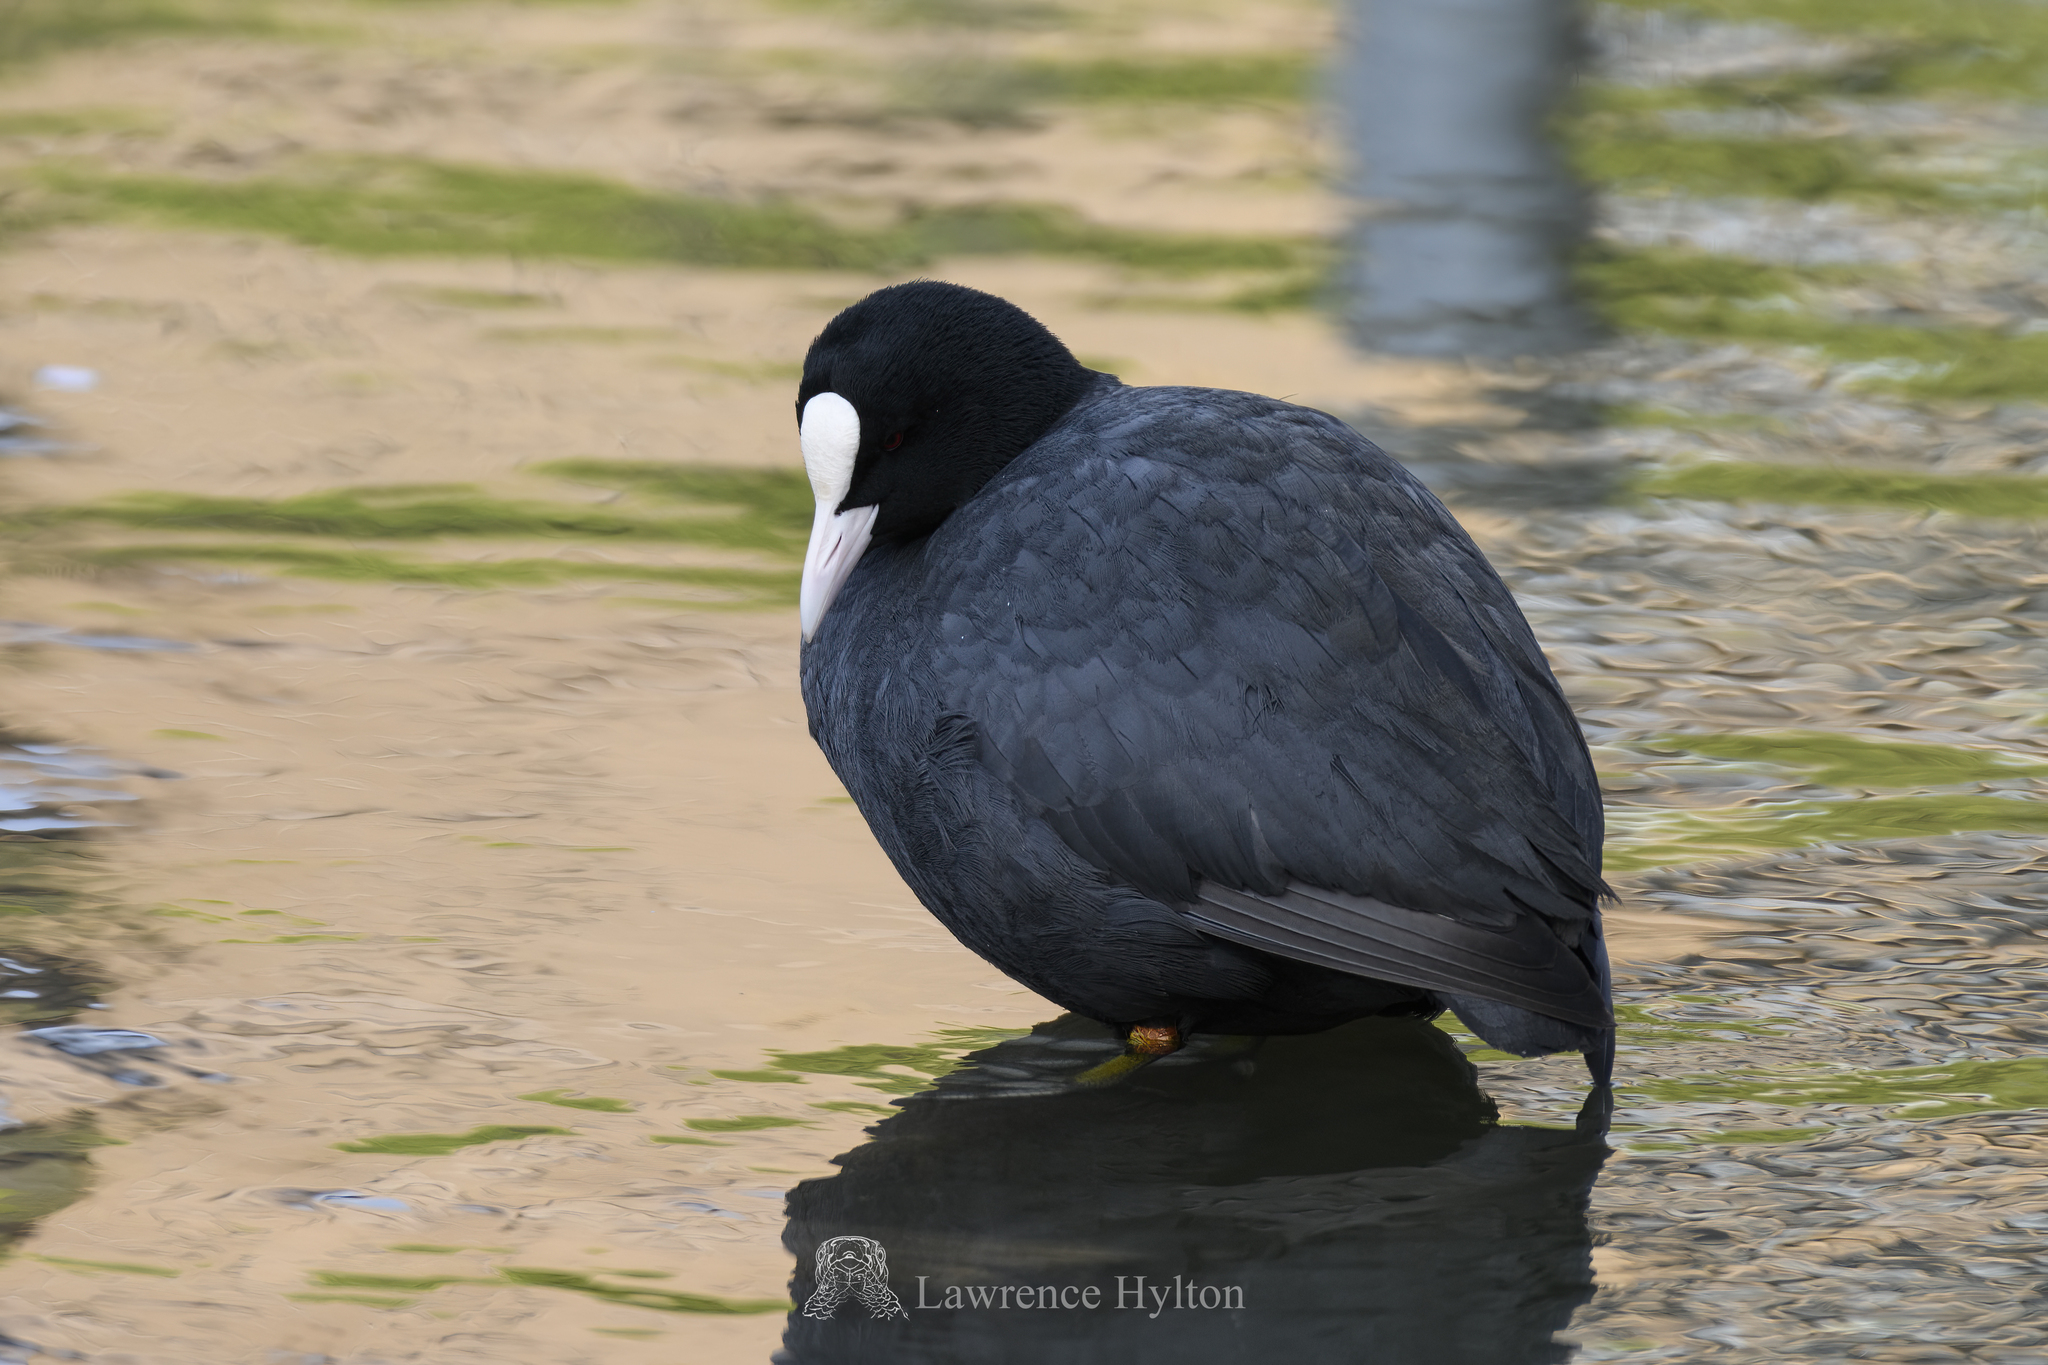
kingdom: Animalia
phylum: Chordata
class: Aves
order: Gruiformes
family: Rallidae
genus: Fulica
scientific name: Fulica atra
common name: Eurasian coot
